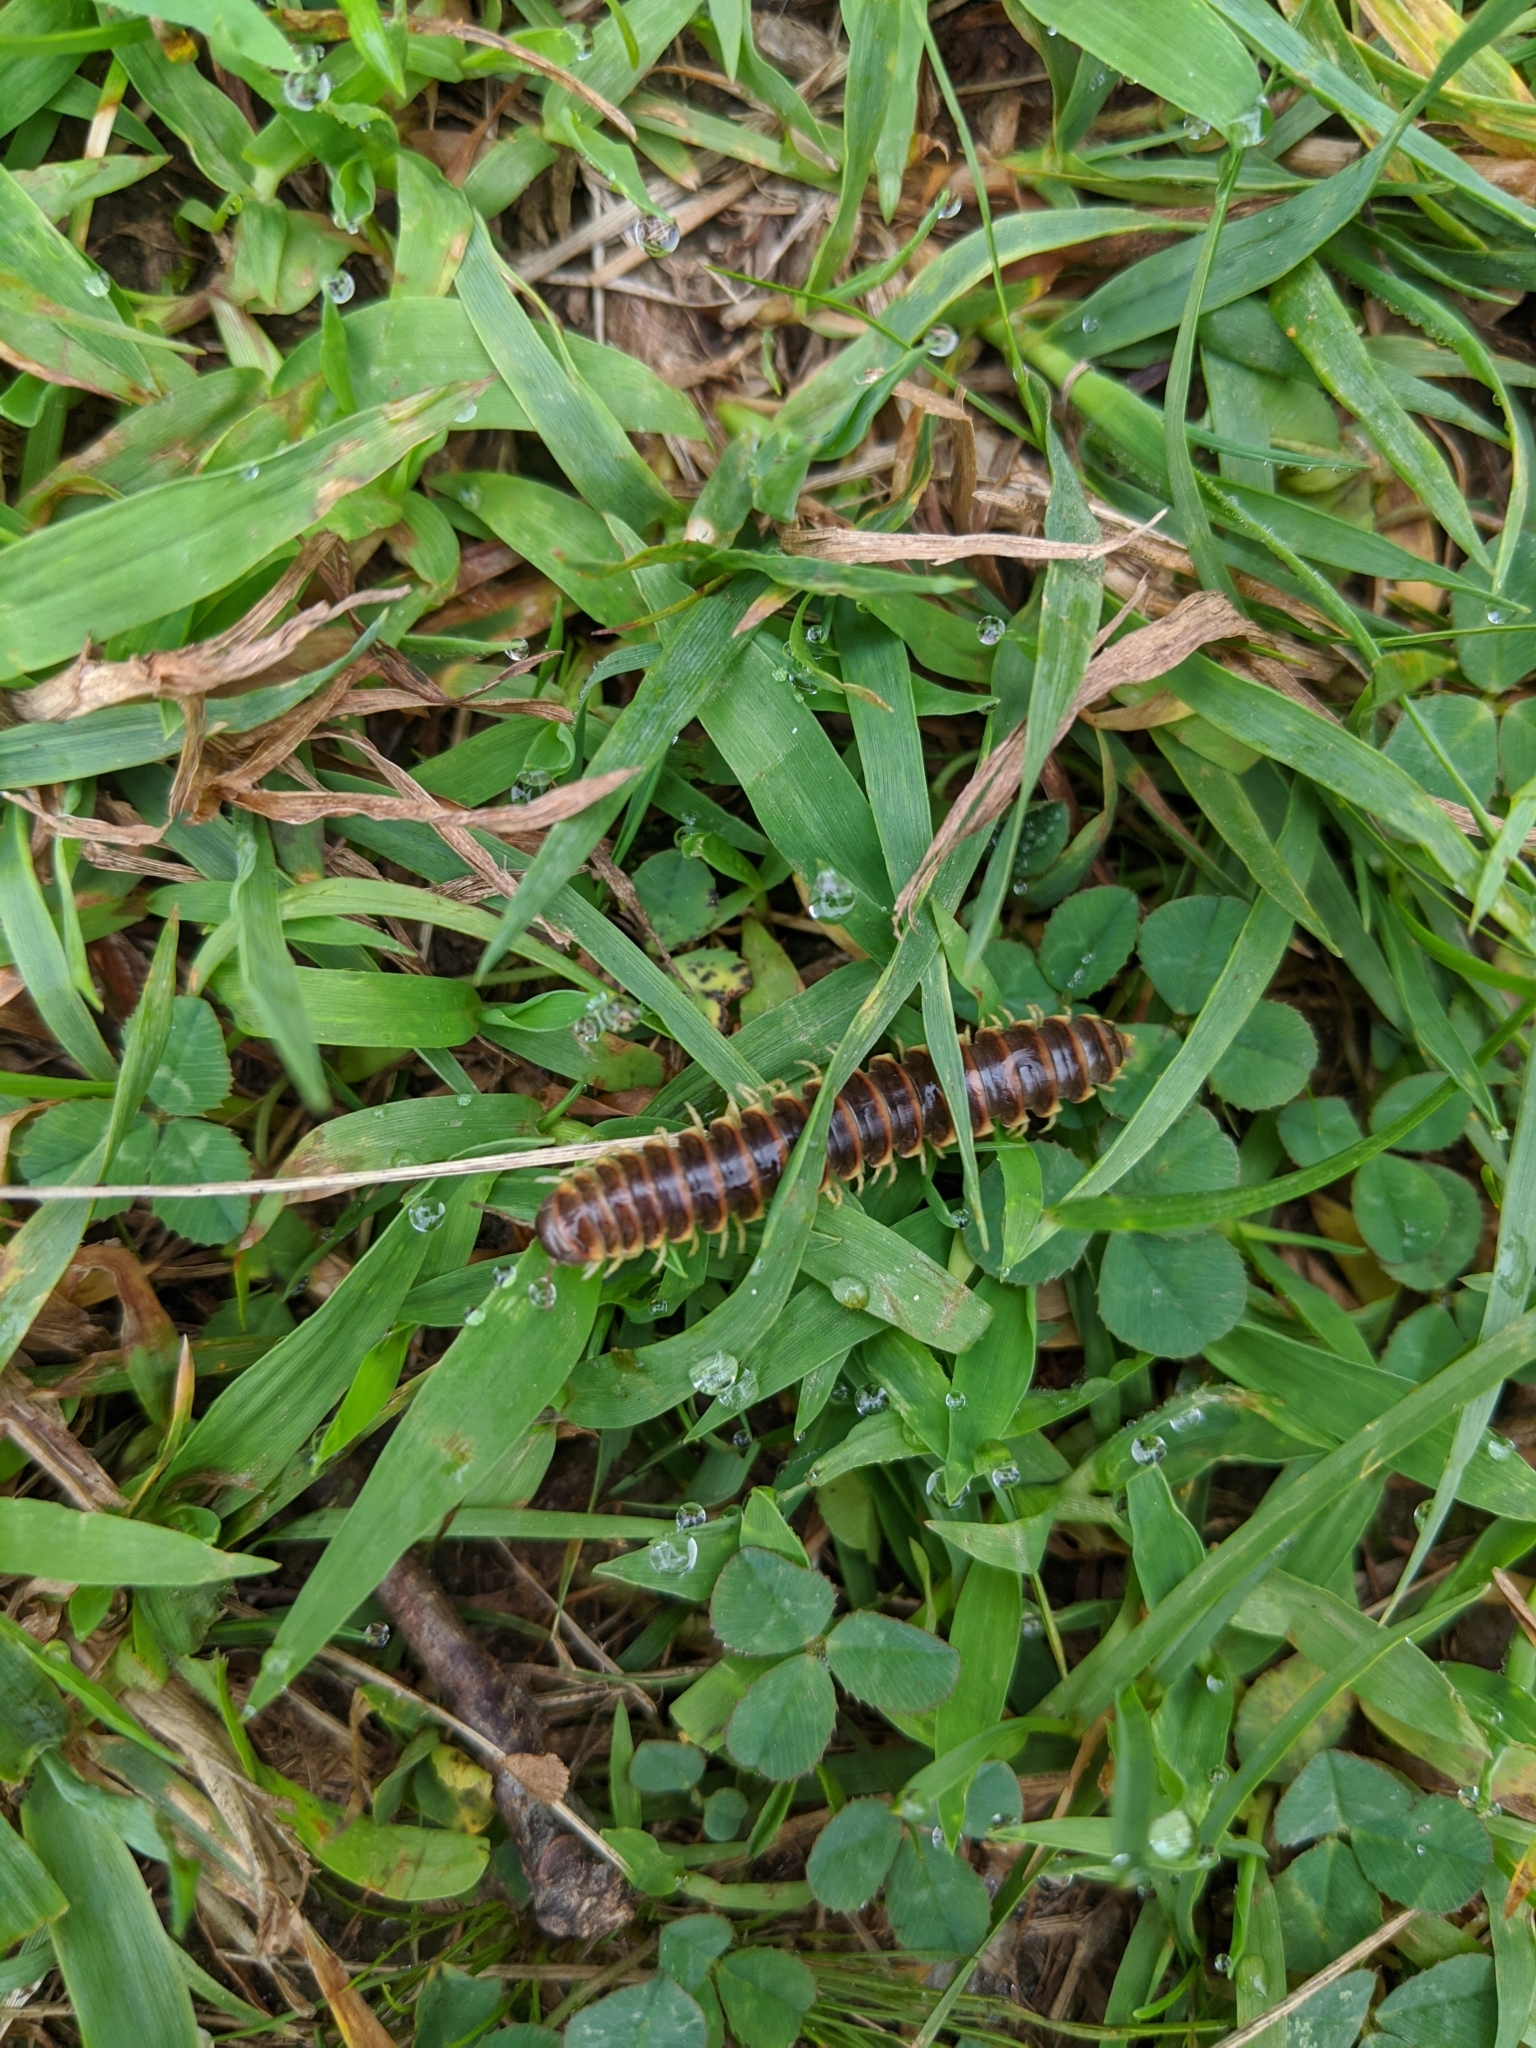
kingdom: Animalia
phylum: Arthropoda
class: Diplopoda
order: Polydesmida
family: Xystodesmidae
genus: Pleuroloma
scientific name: Pleuroloma flavipes
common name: Yellow-legged pleuroloma
